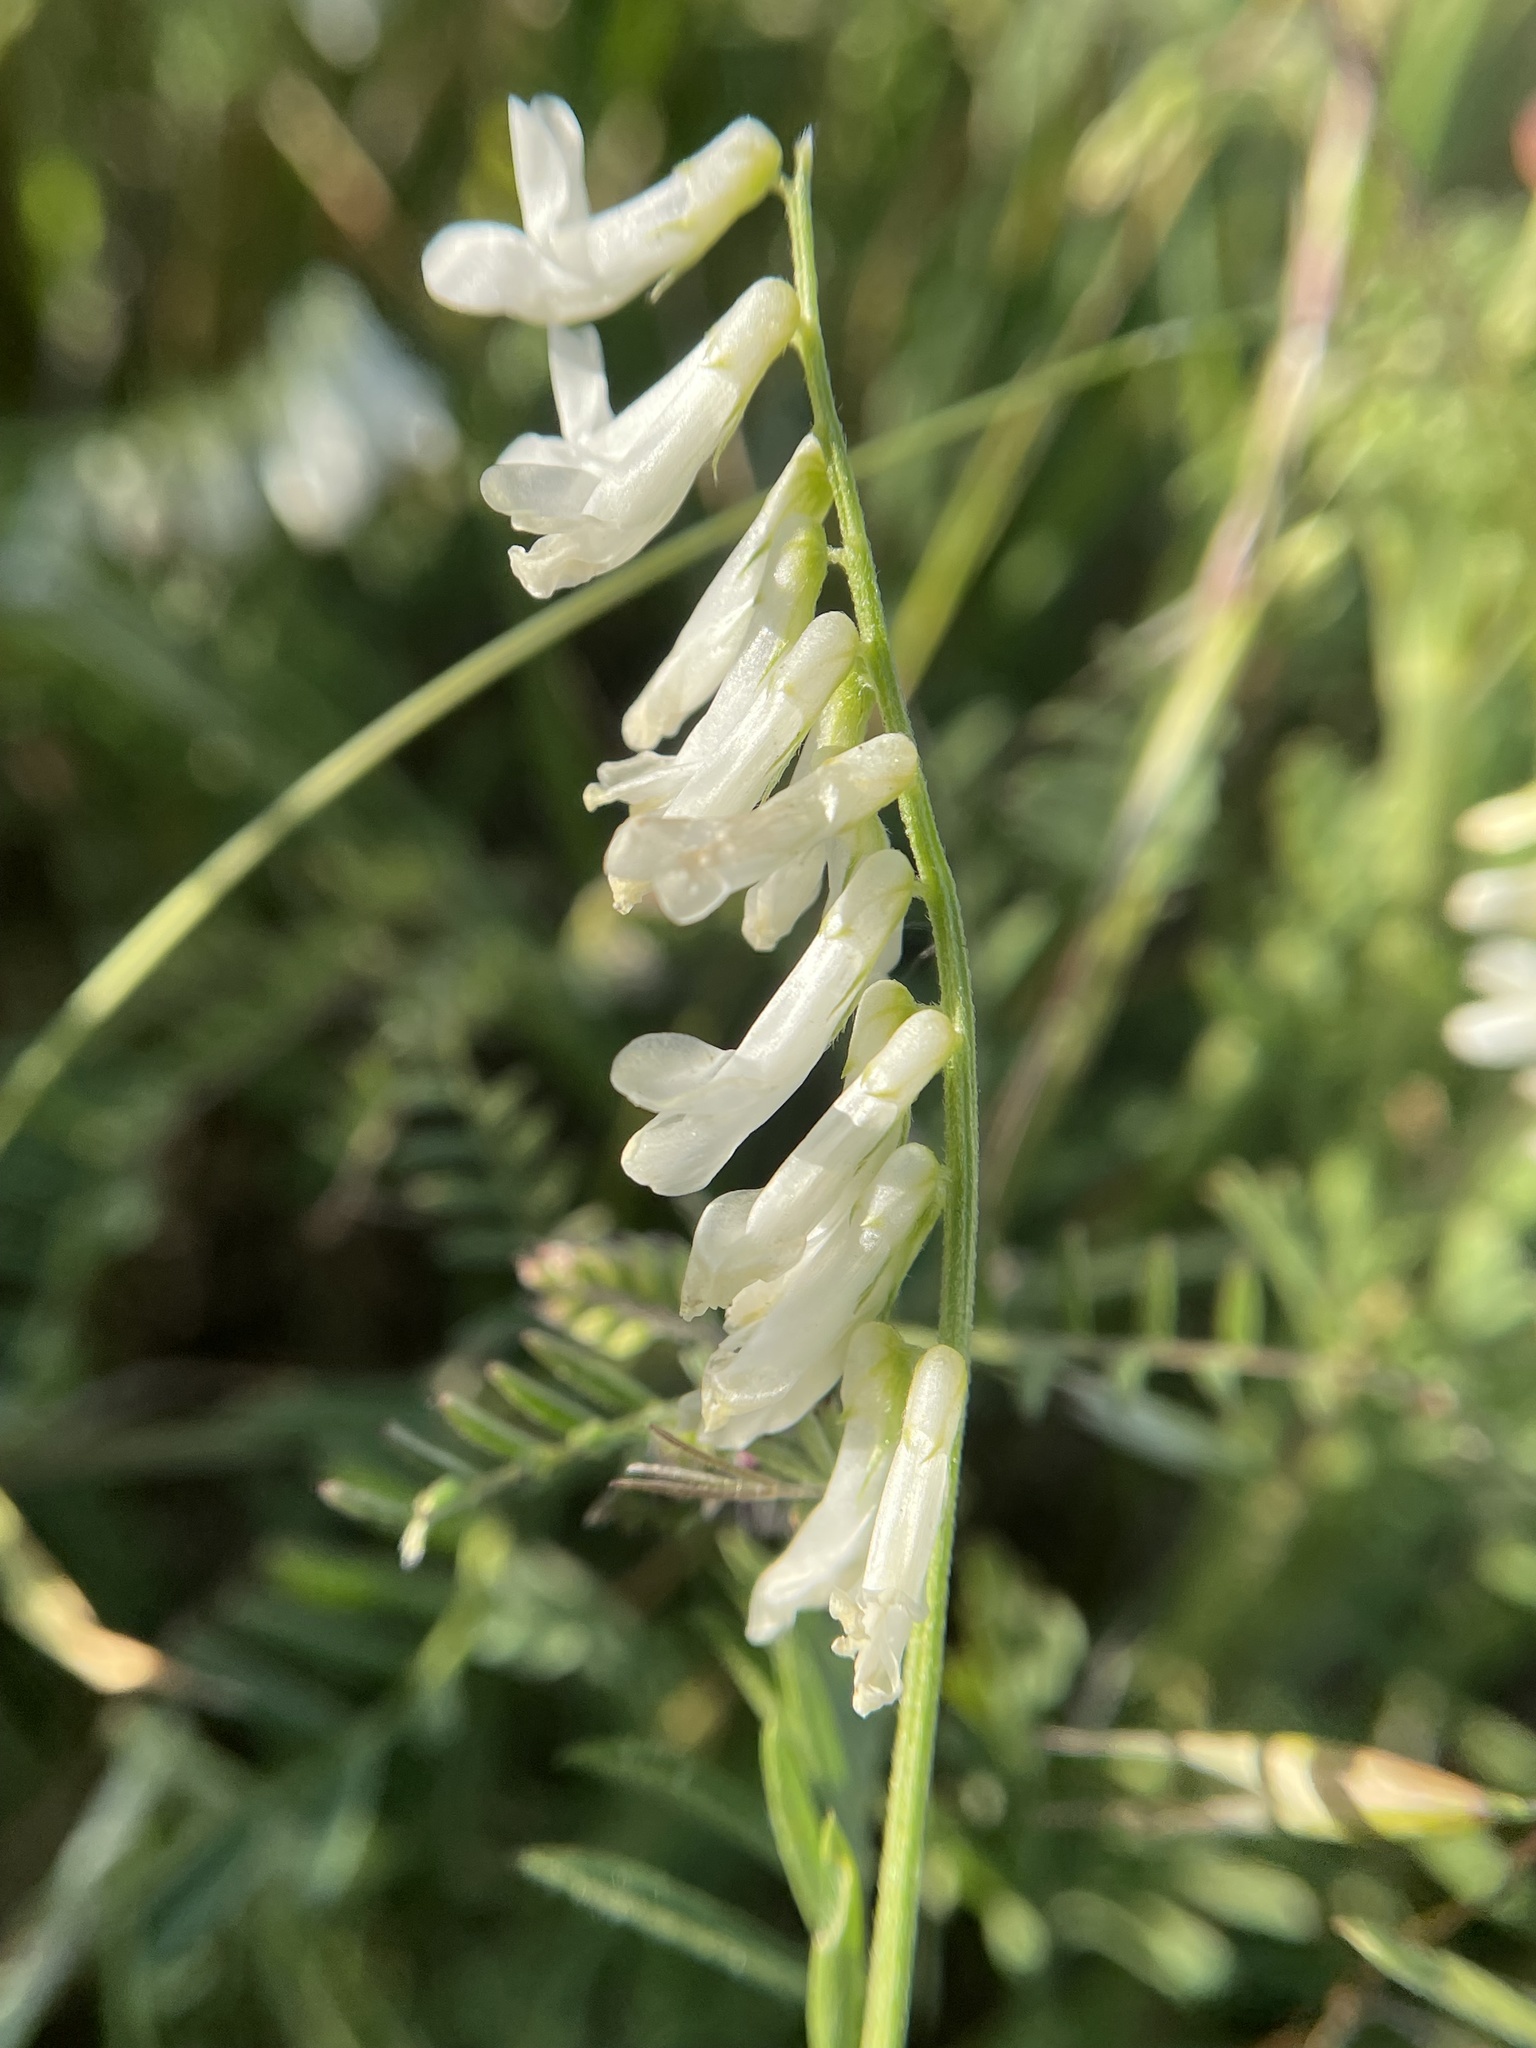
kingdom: Plantae
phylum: Tracheophyta
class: Magnoliopsida
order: Fabales
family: Fabaceae
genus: Vicia
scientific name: Vicia villosa
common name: Fodder vetch
